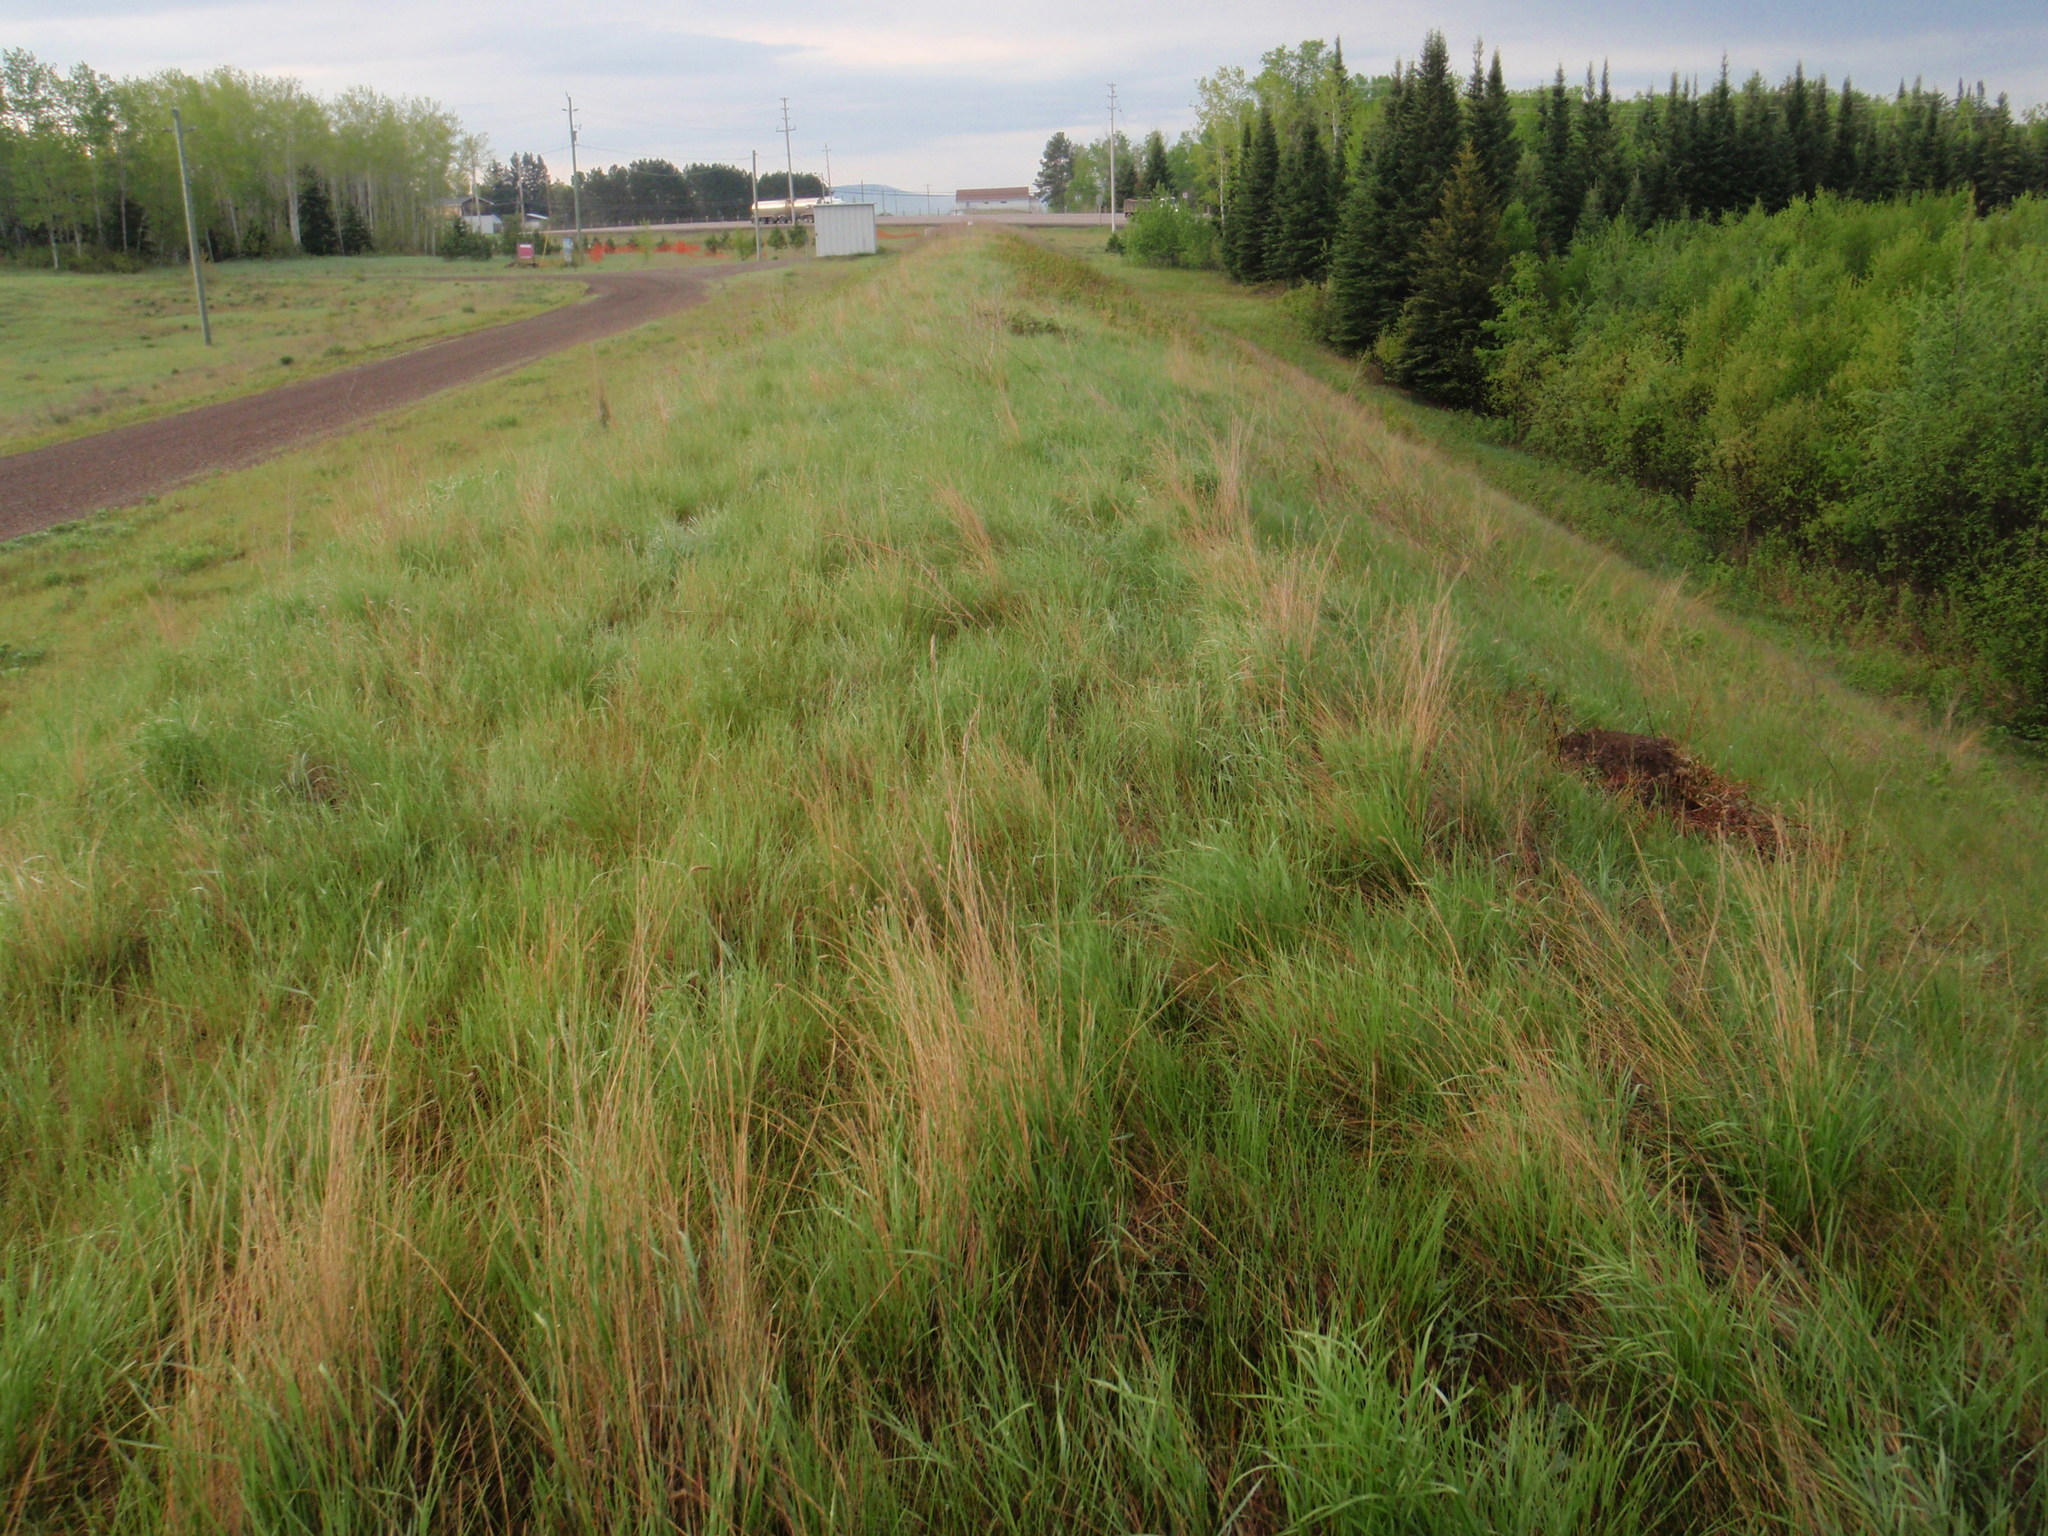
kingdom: Animalia
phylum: Chordata
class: Mammalia
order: Rodentia
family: Sciuridae
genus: Marmota
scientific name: Marmota monax
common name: Groundhog
